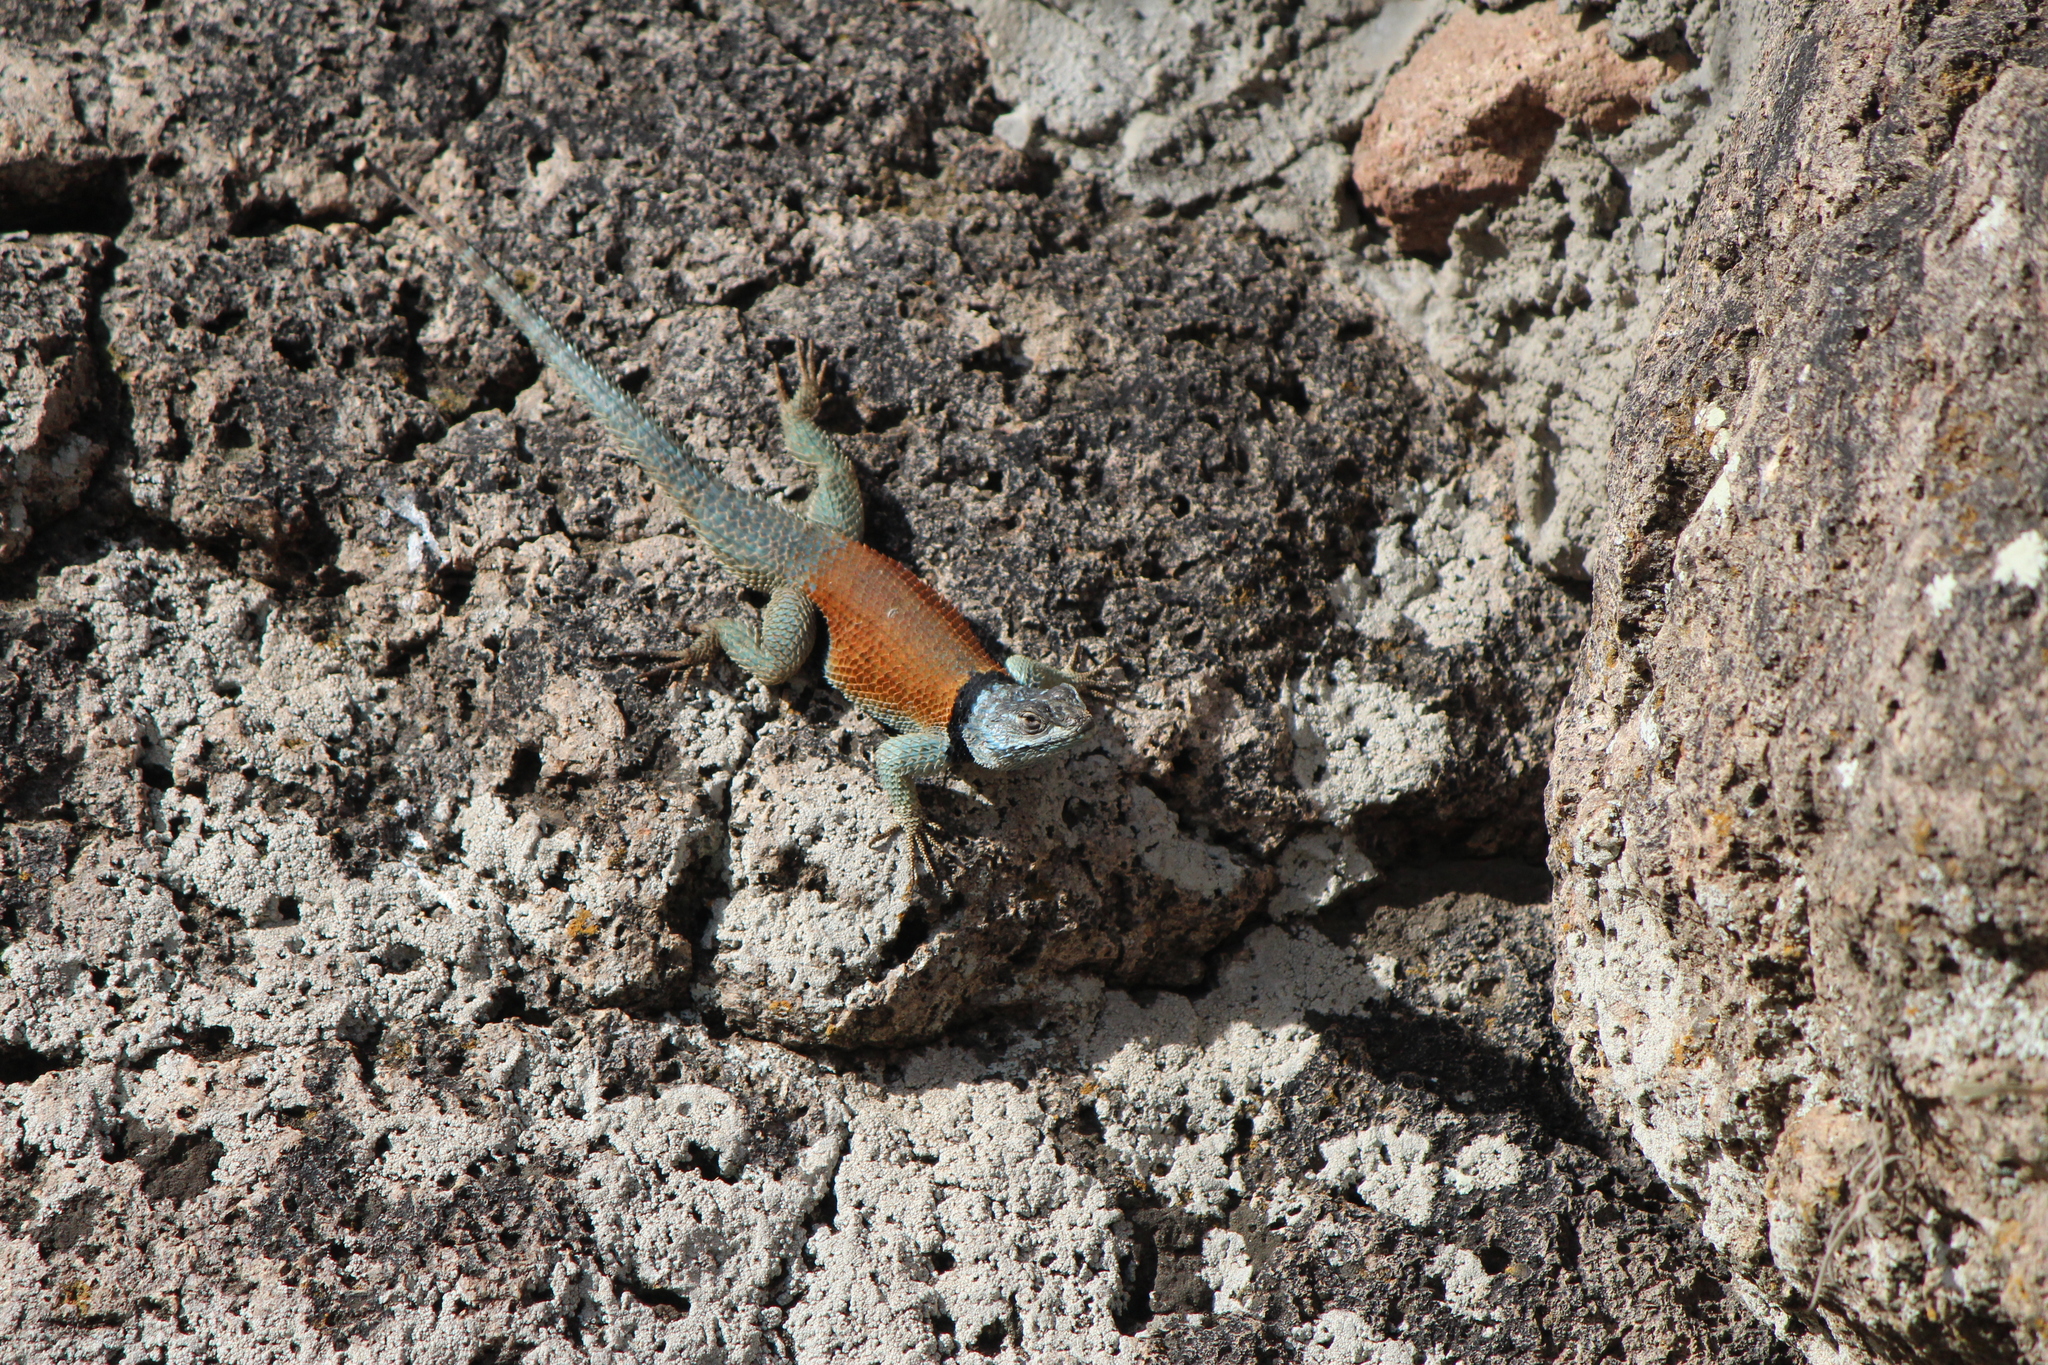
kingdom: Animalia
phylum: Chordata
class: Squamata
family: Phrynosomatidae
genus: Sceloporus
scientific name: Sceloporus minor
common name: Minor lizard
